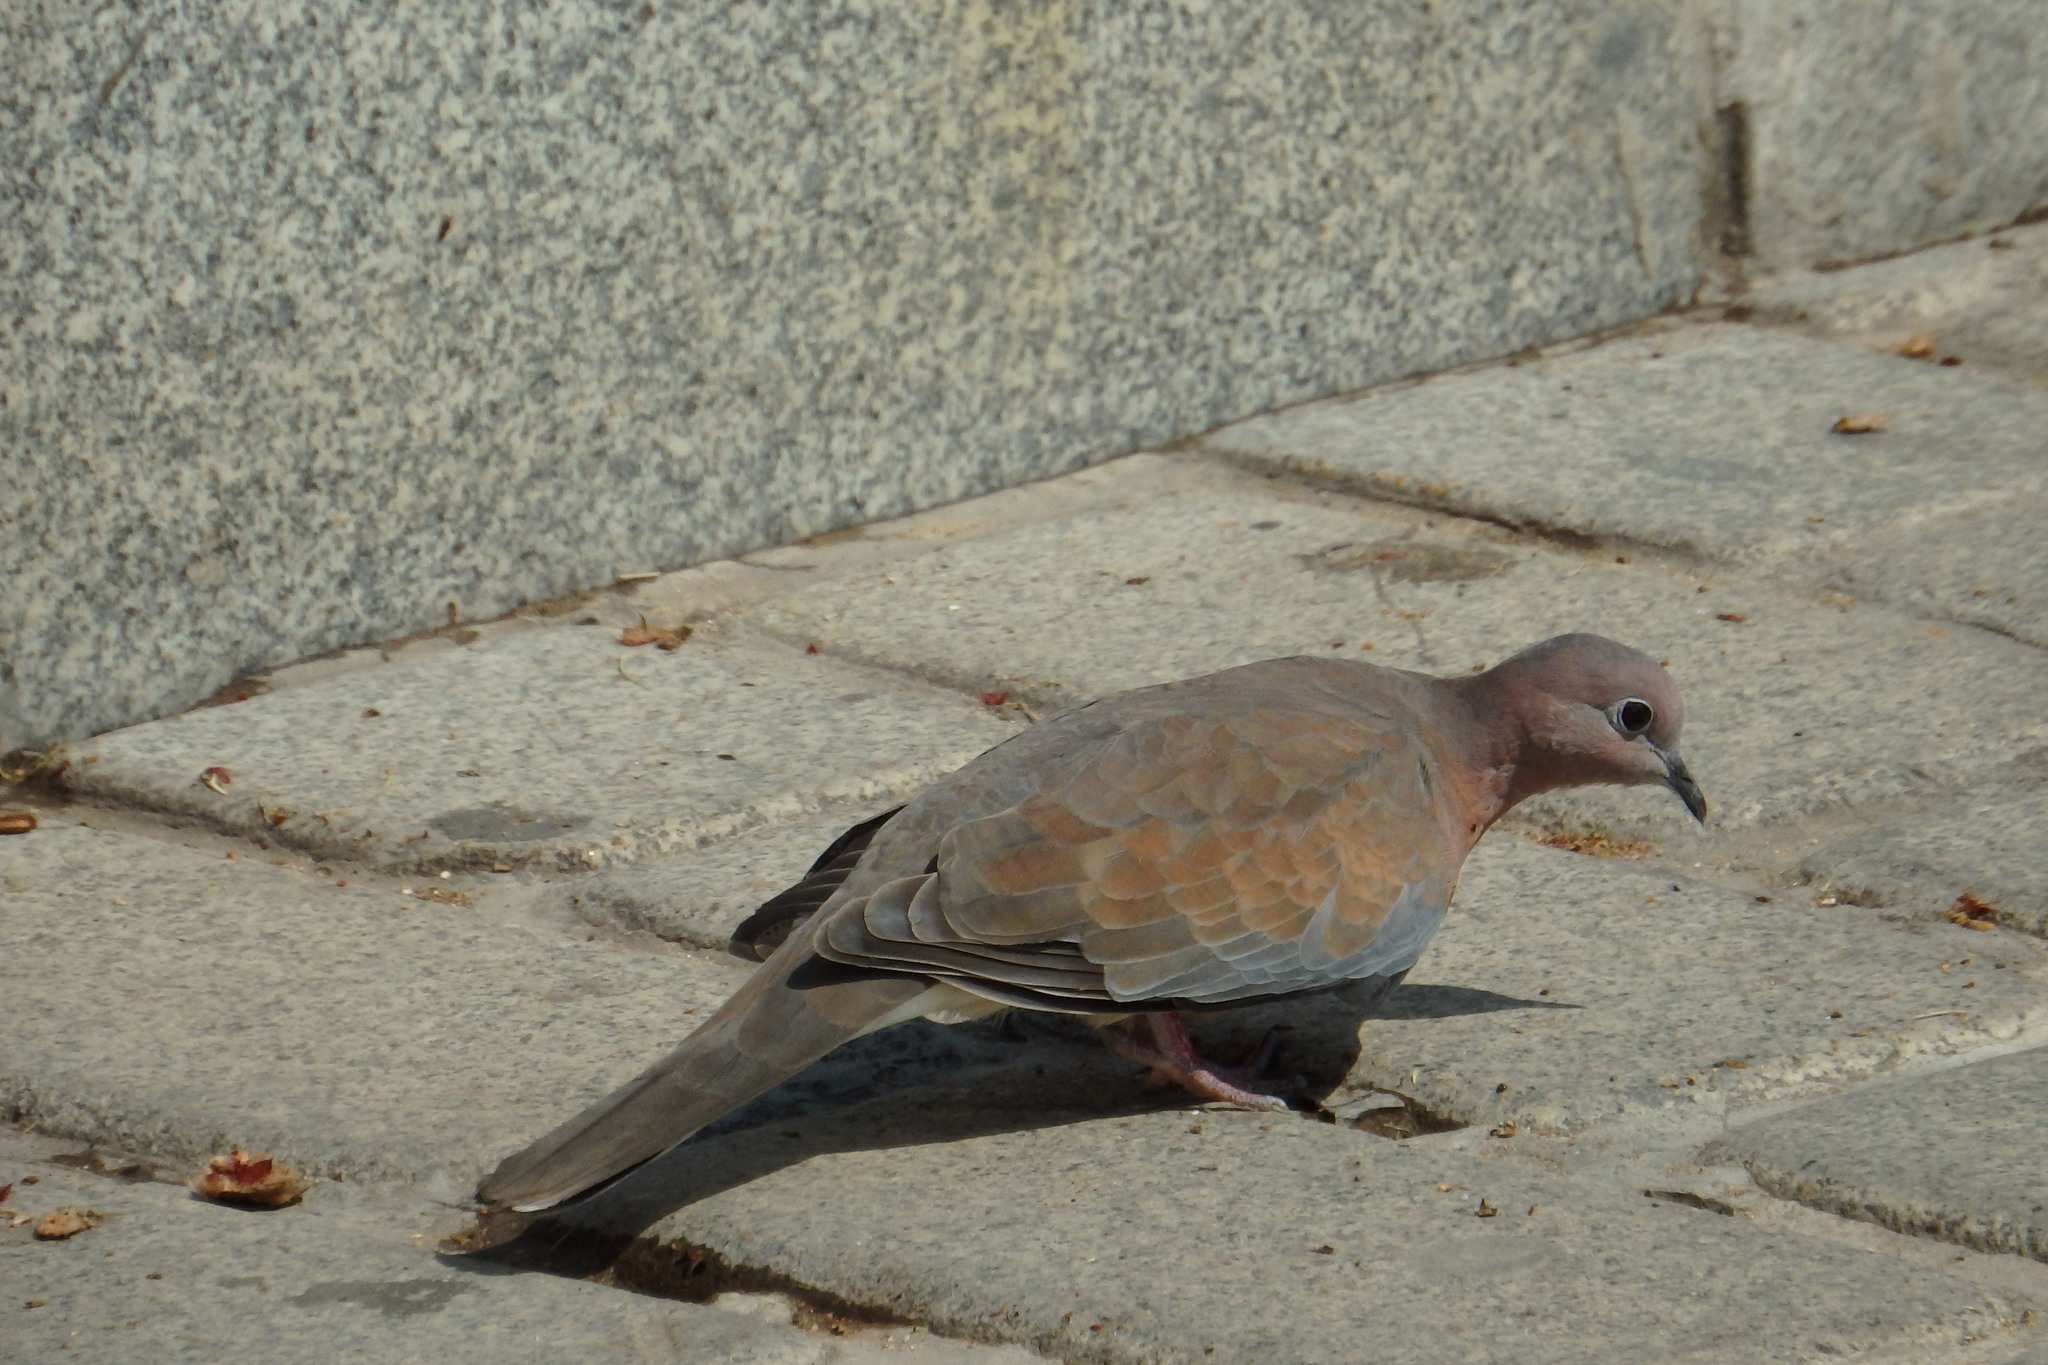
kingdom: Animalia
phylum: Chordata
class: Aves
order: Columbiformes
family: Columbidae
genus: Spilopelia
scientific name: Spilopelia senegalensis
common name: Laughing dove
